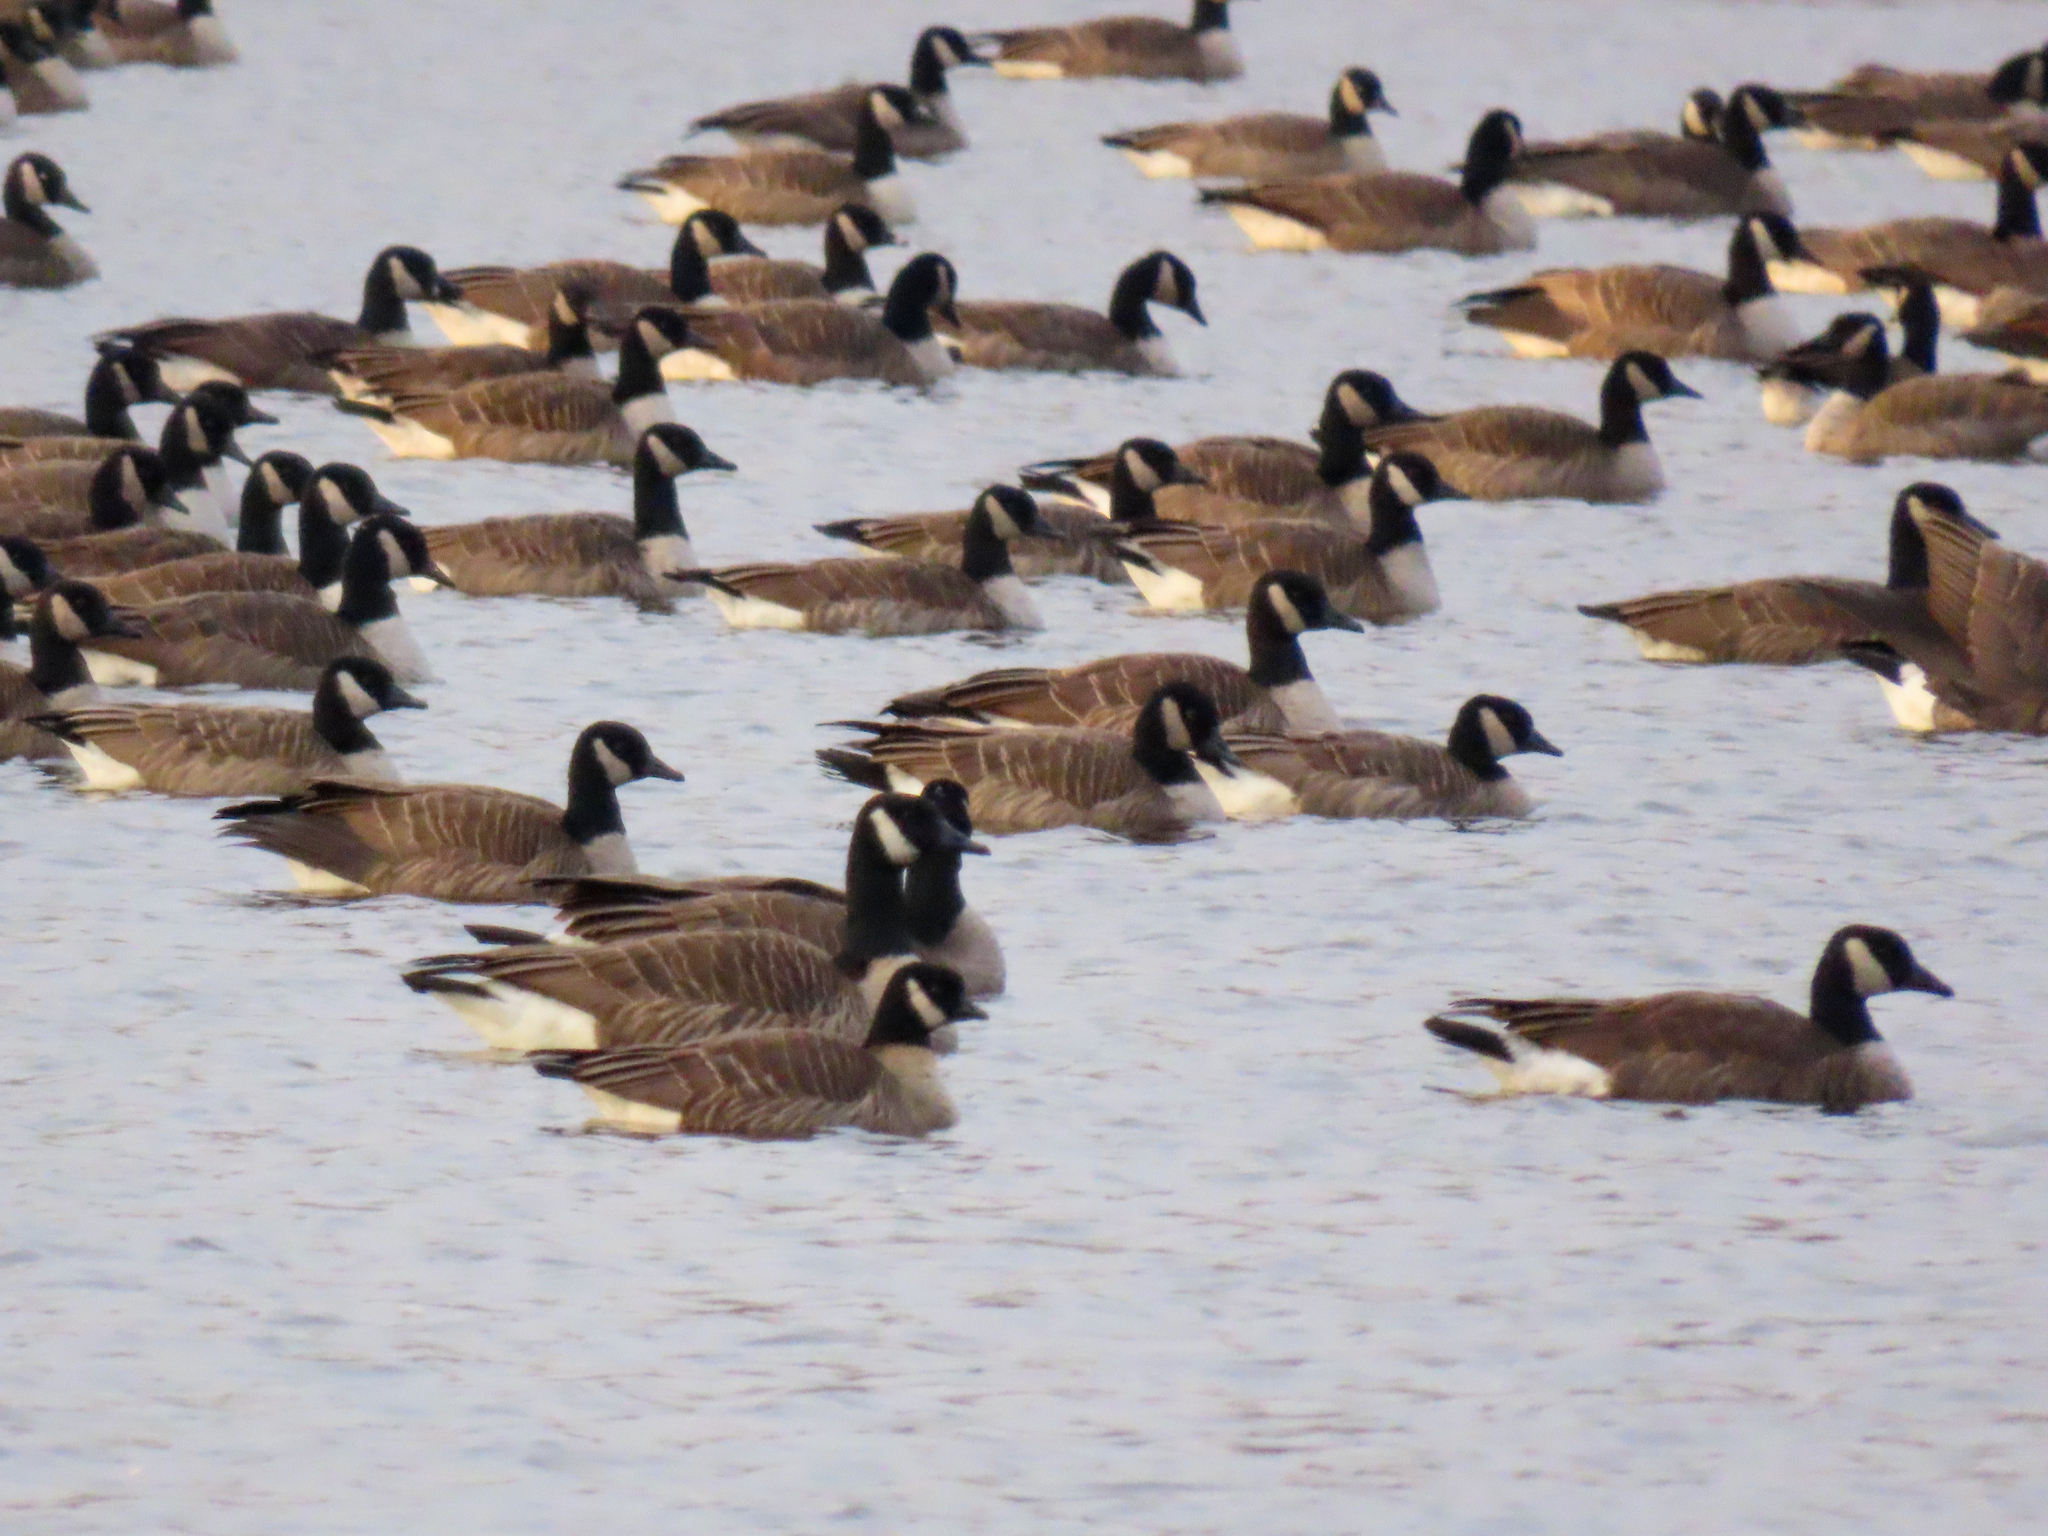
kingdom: Animalia
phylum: Chordata
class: Aves
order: Anseriformes
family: Anatidae
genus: Branta
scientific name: Branta hutchinsii
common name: Cackling goose
